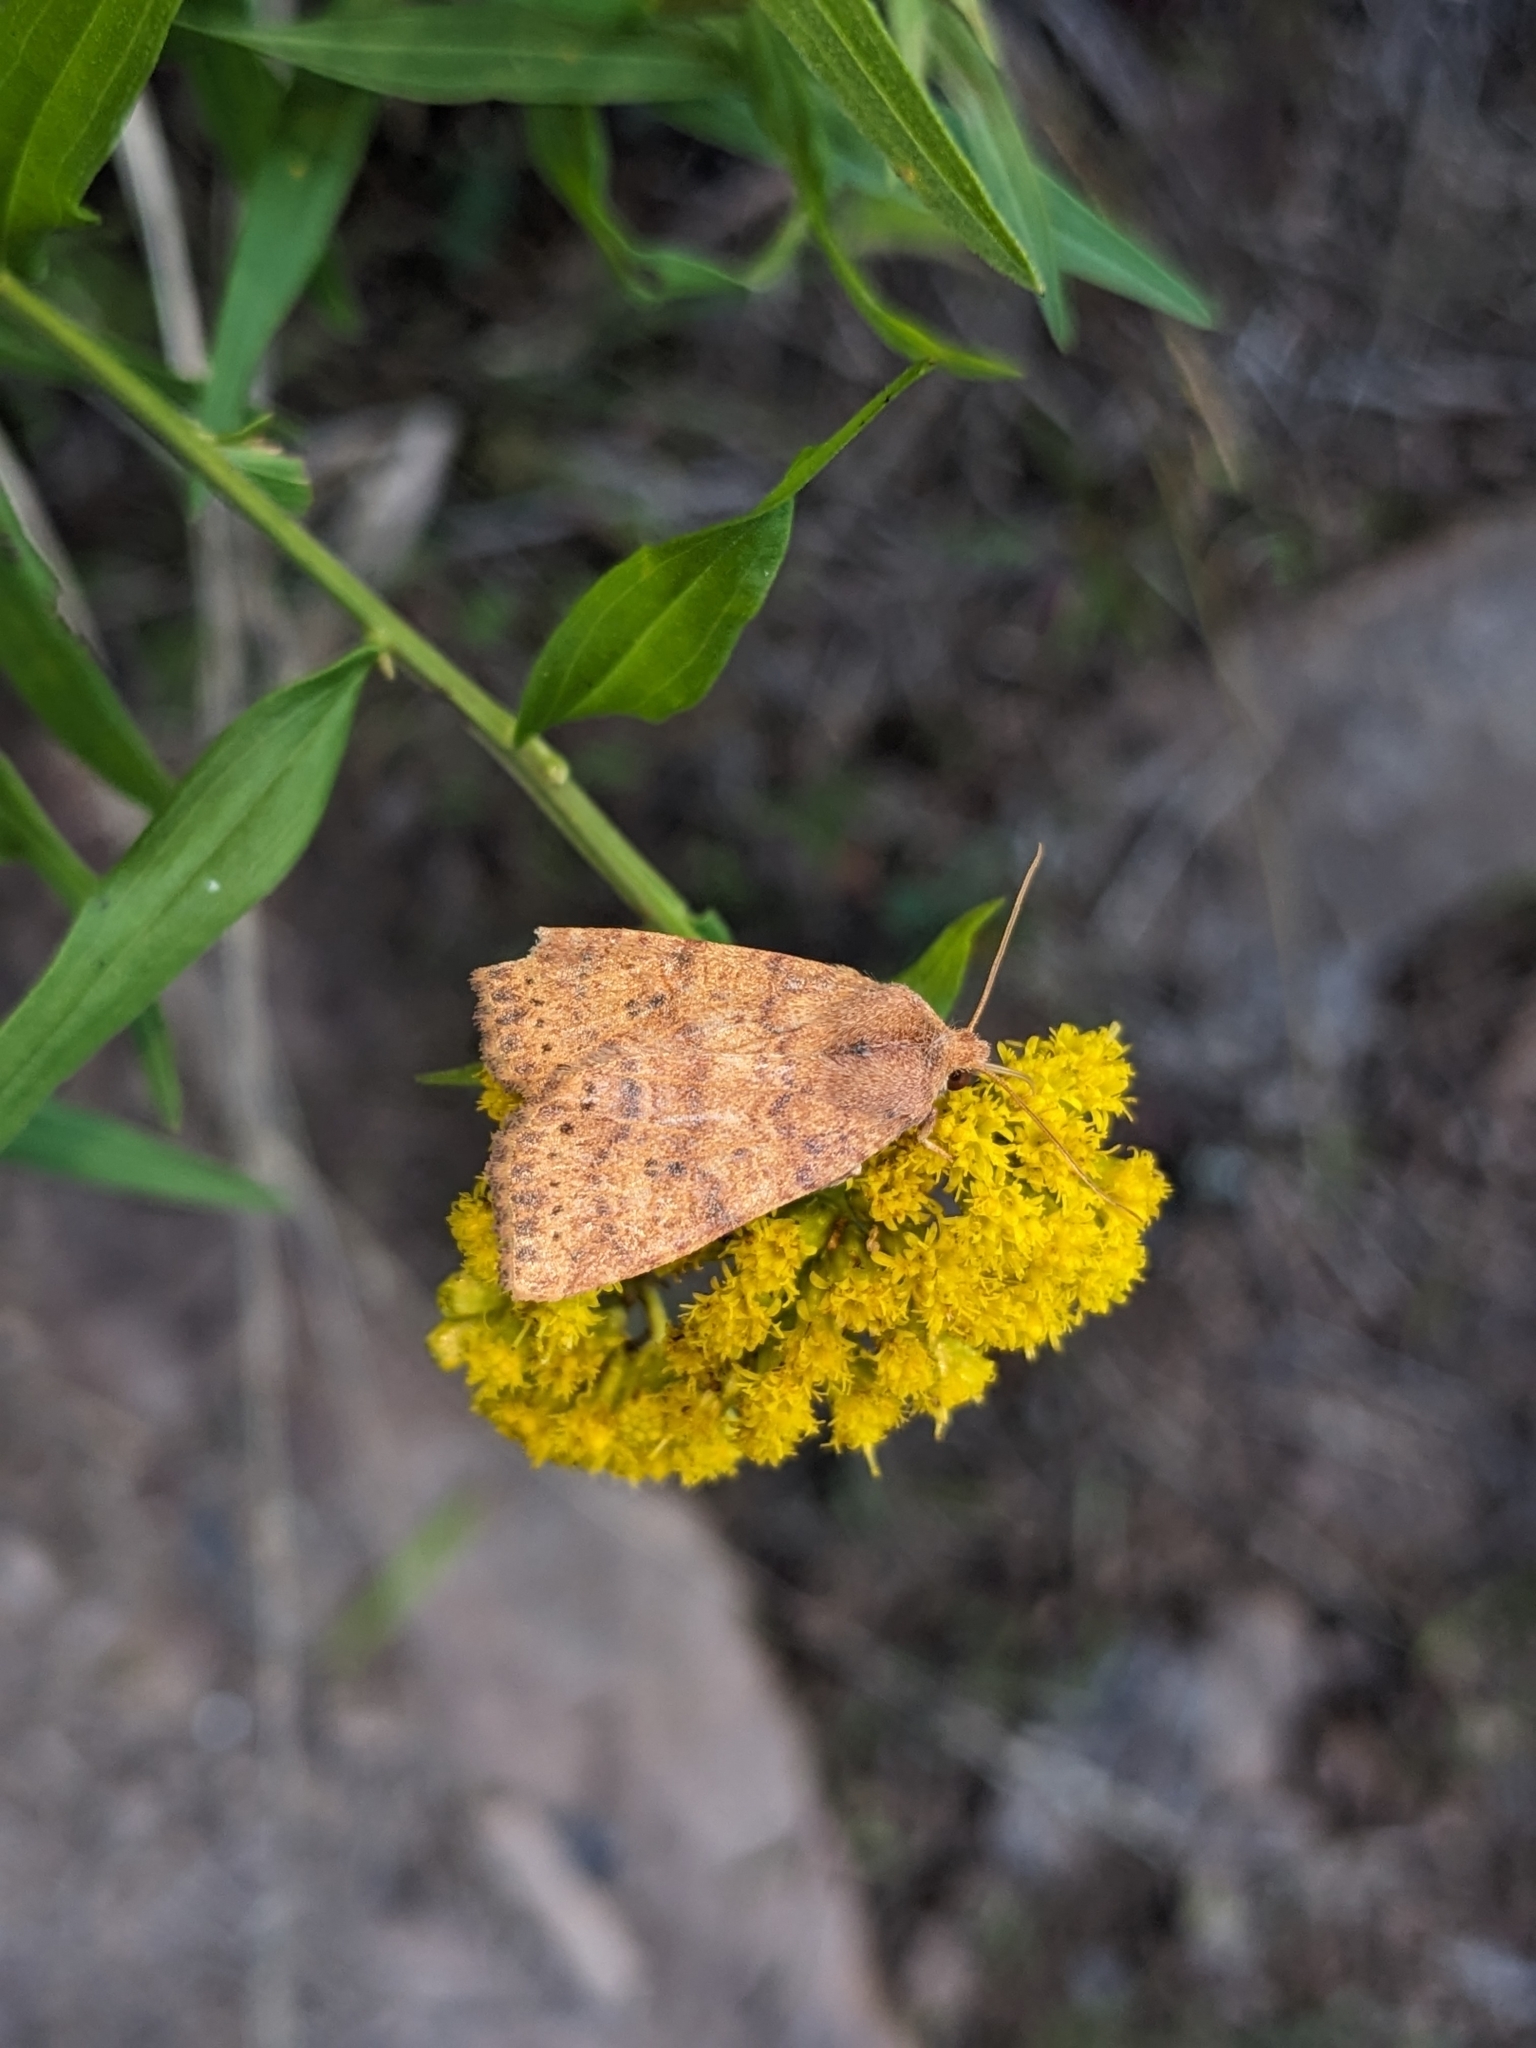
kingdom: Animalia
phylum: Arthropoda
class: Insecta
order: Lepidoptera
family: Noctuidae
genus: Anathix
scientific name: Anathix ralla
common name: Dotted sallow
